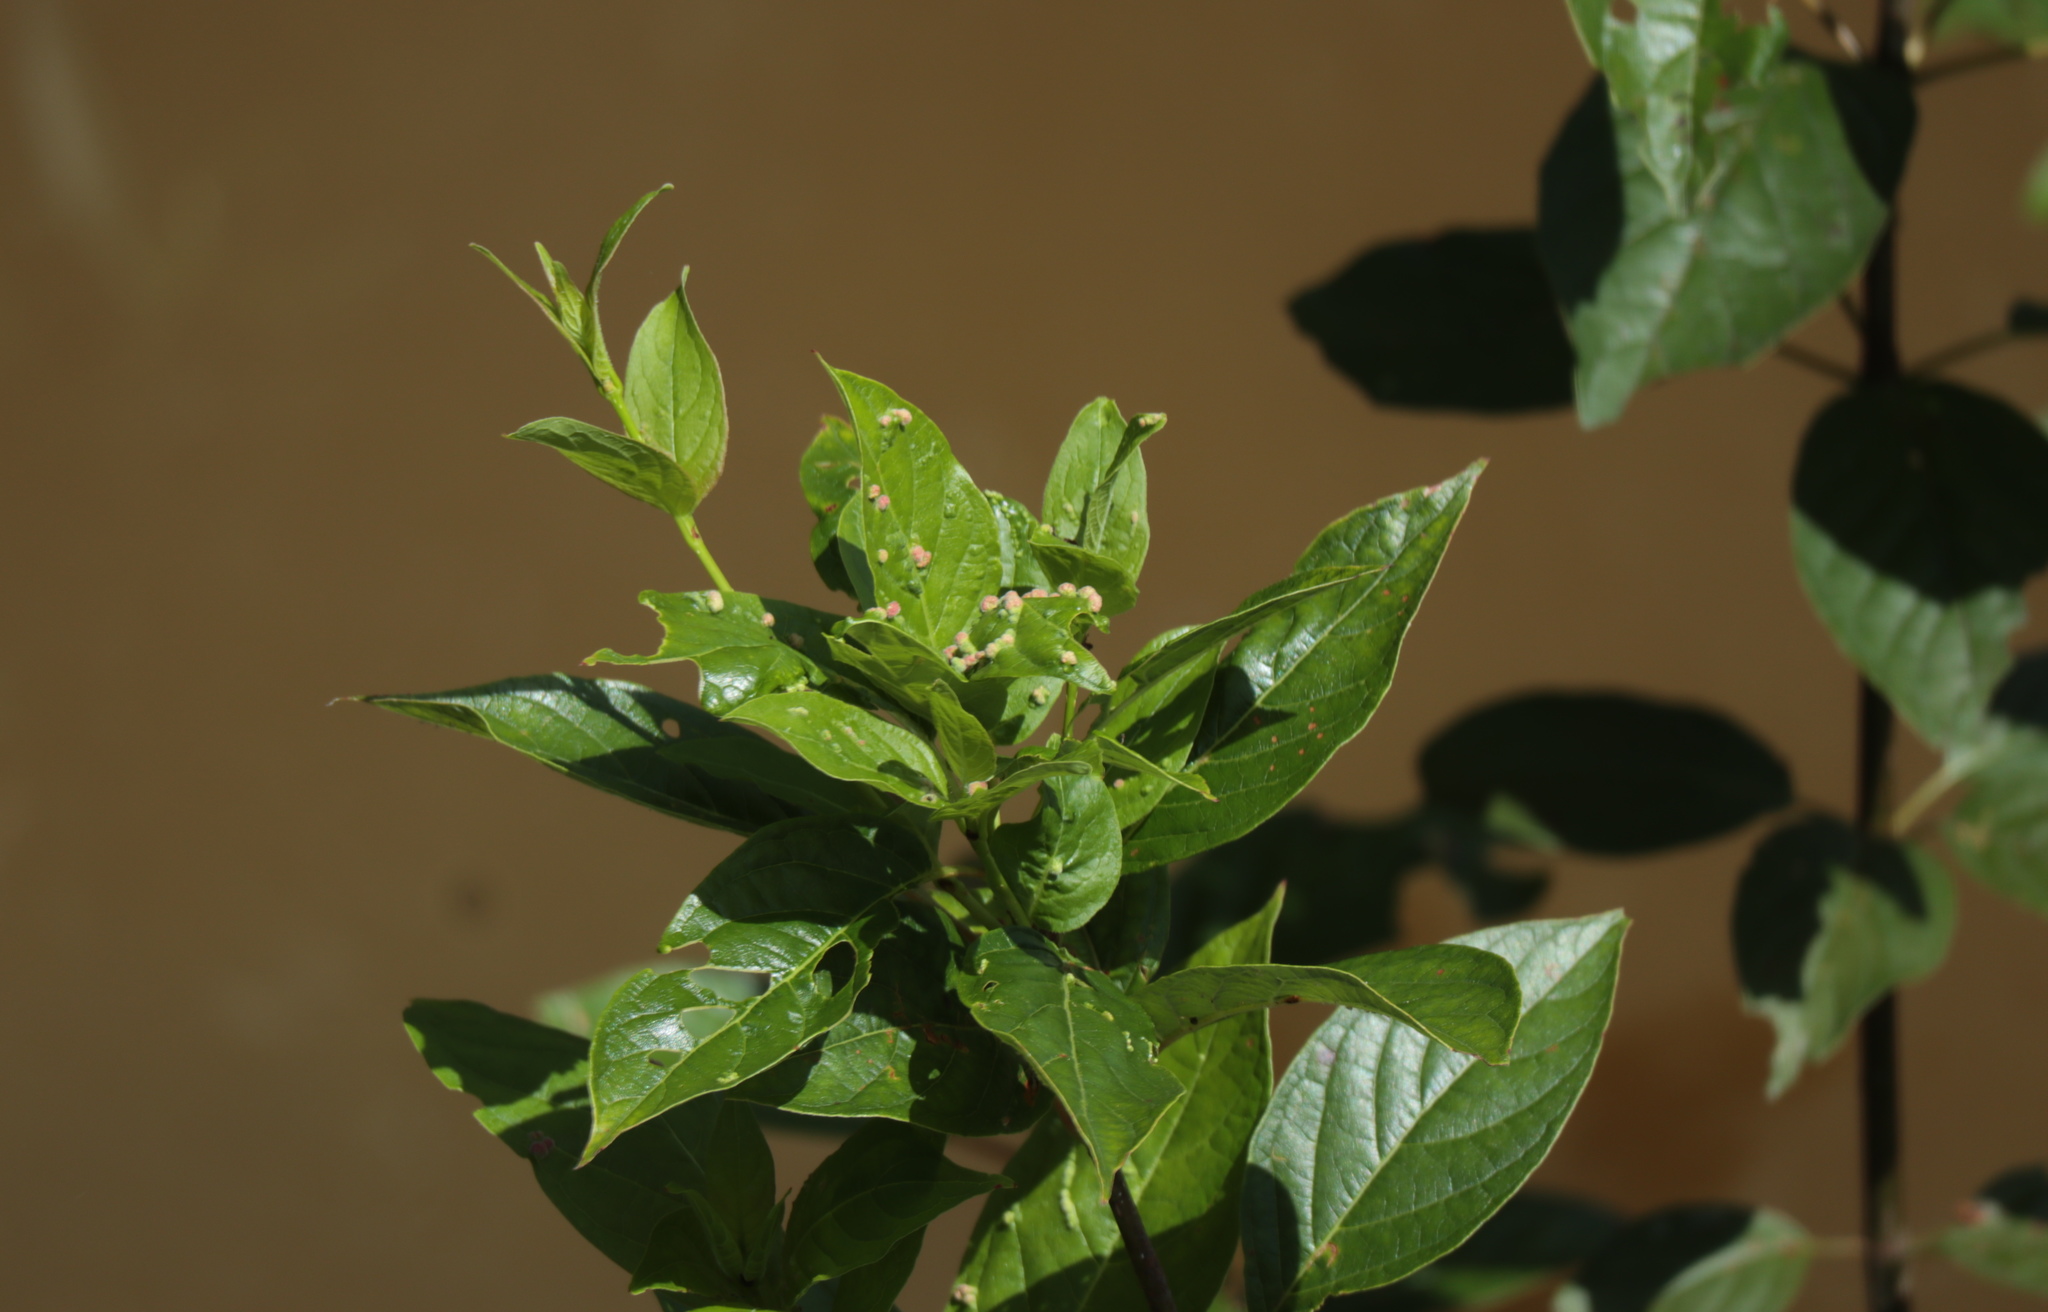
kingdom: Animalia
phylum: Arthropoda
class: Arachnida
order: Trombidiformes
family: Eriophyidae
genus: Aceria
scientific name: Aceria
